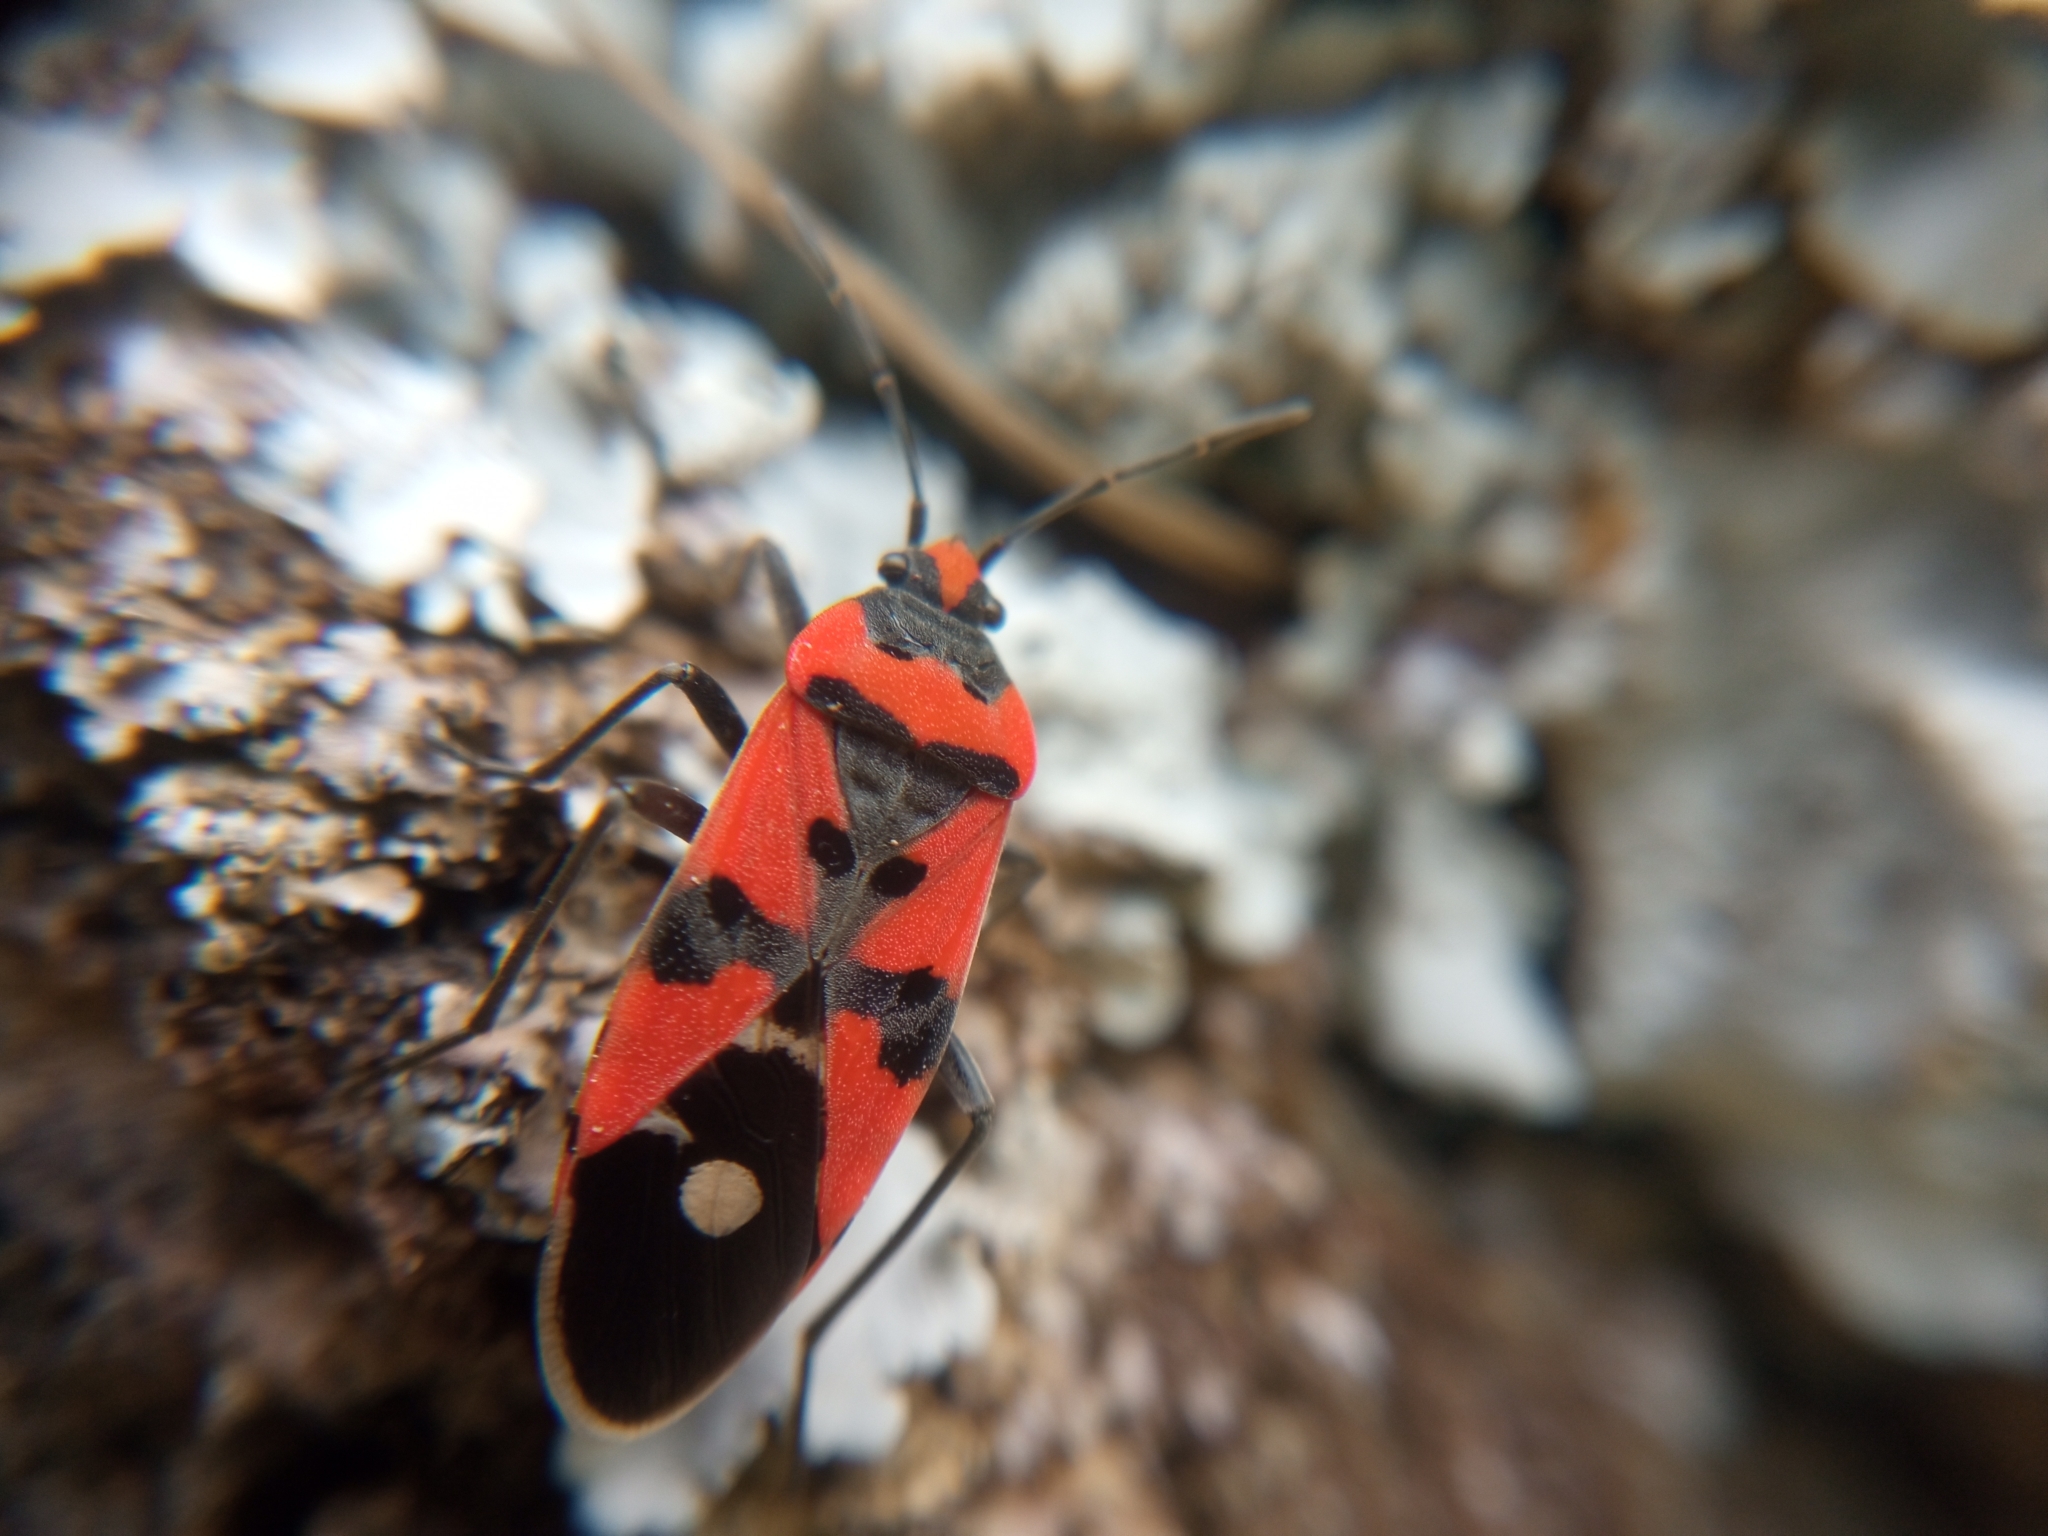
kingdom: Animalia
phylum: Arthropoda
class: Insecta
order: Hemiptera
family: Lygaeidae
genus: Lygaeus
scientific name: Lygaeus equestris
